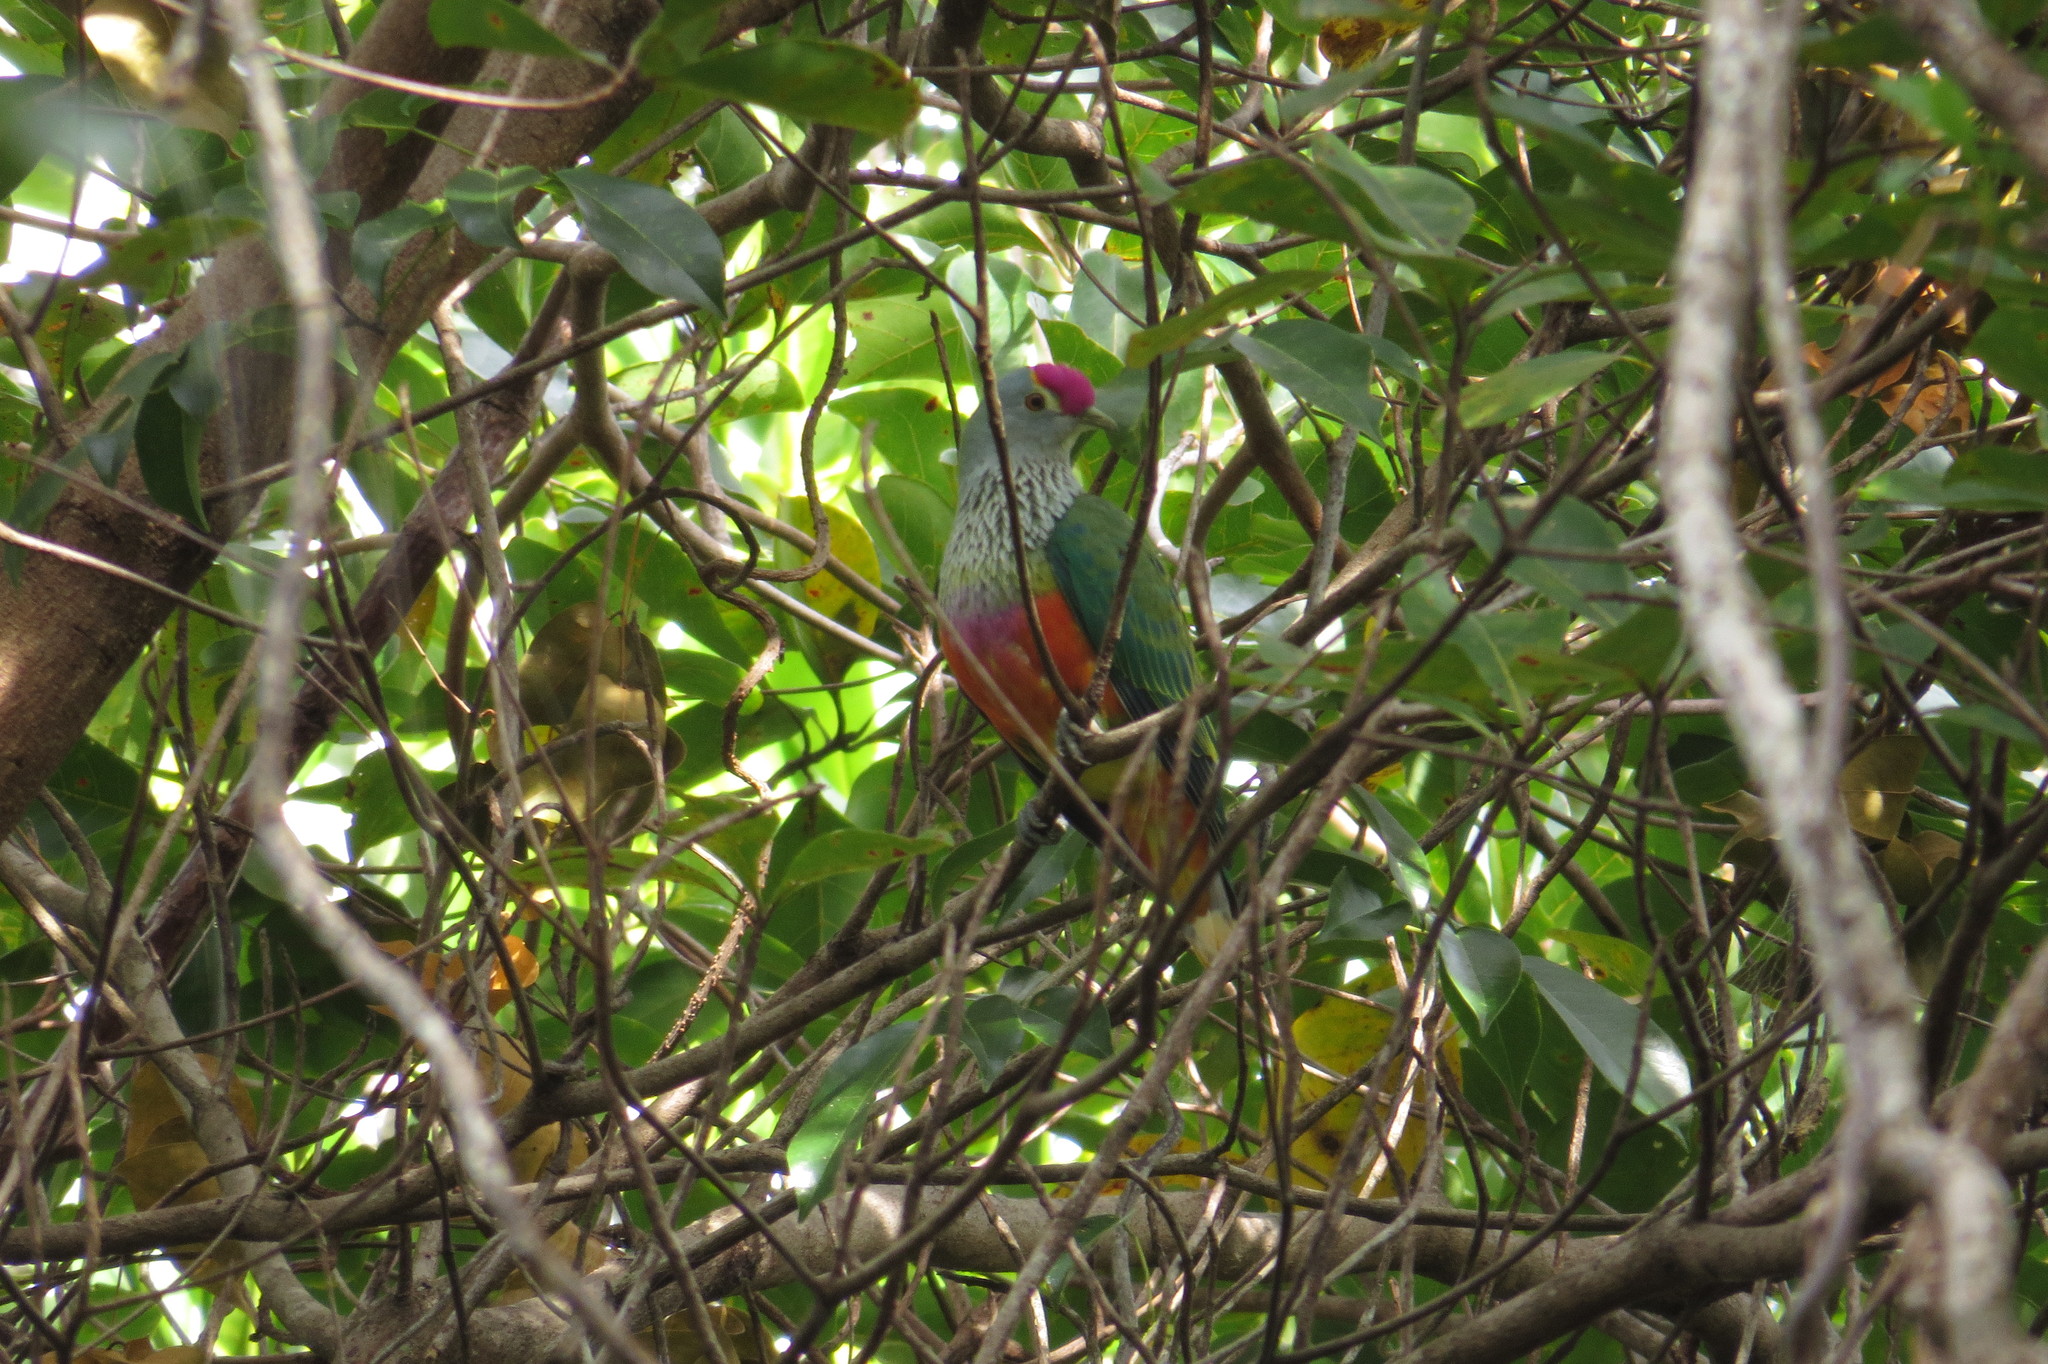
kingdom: Animalia
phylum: Chordata
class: Aves
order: Columbiformes
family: Columbidae
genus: Ptilinopus
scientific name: Ptilinopus regina
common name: Rose-crowned fruit dove
